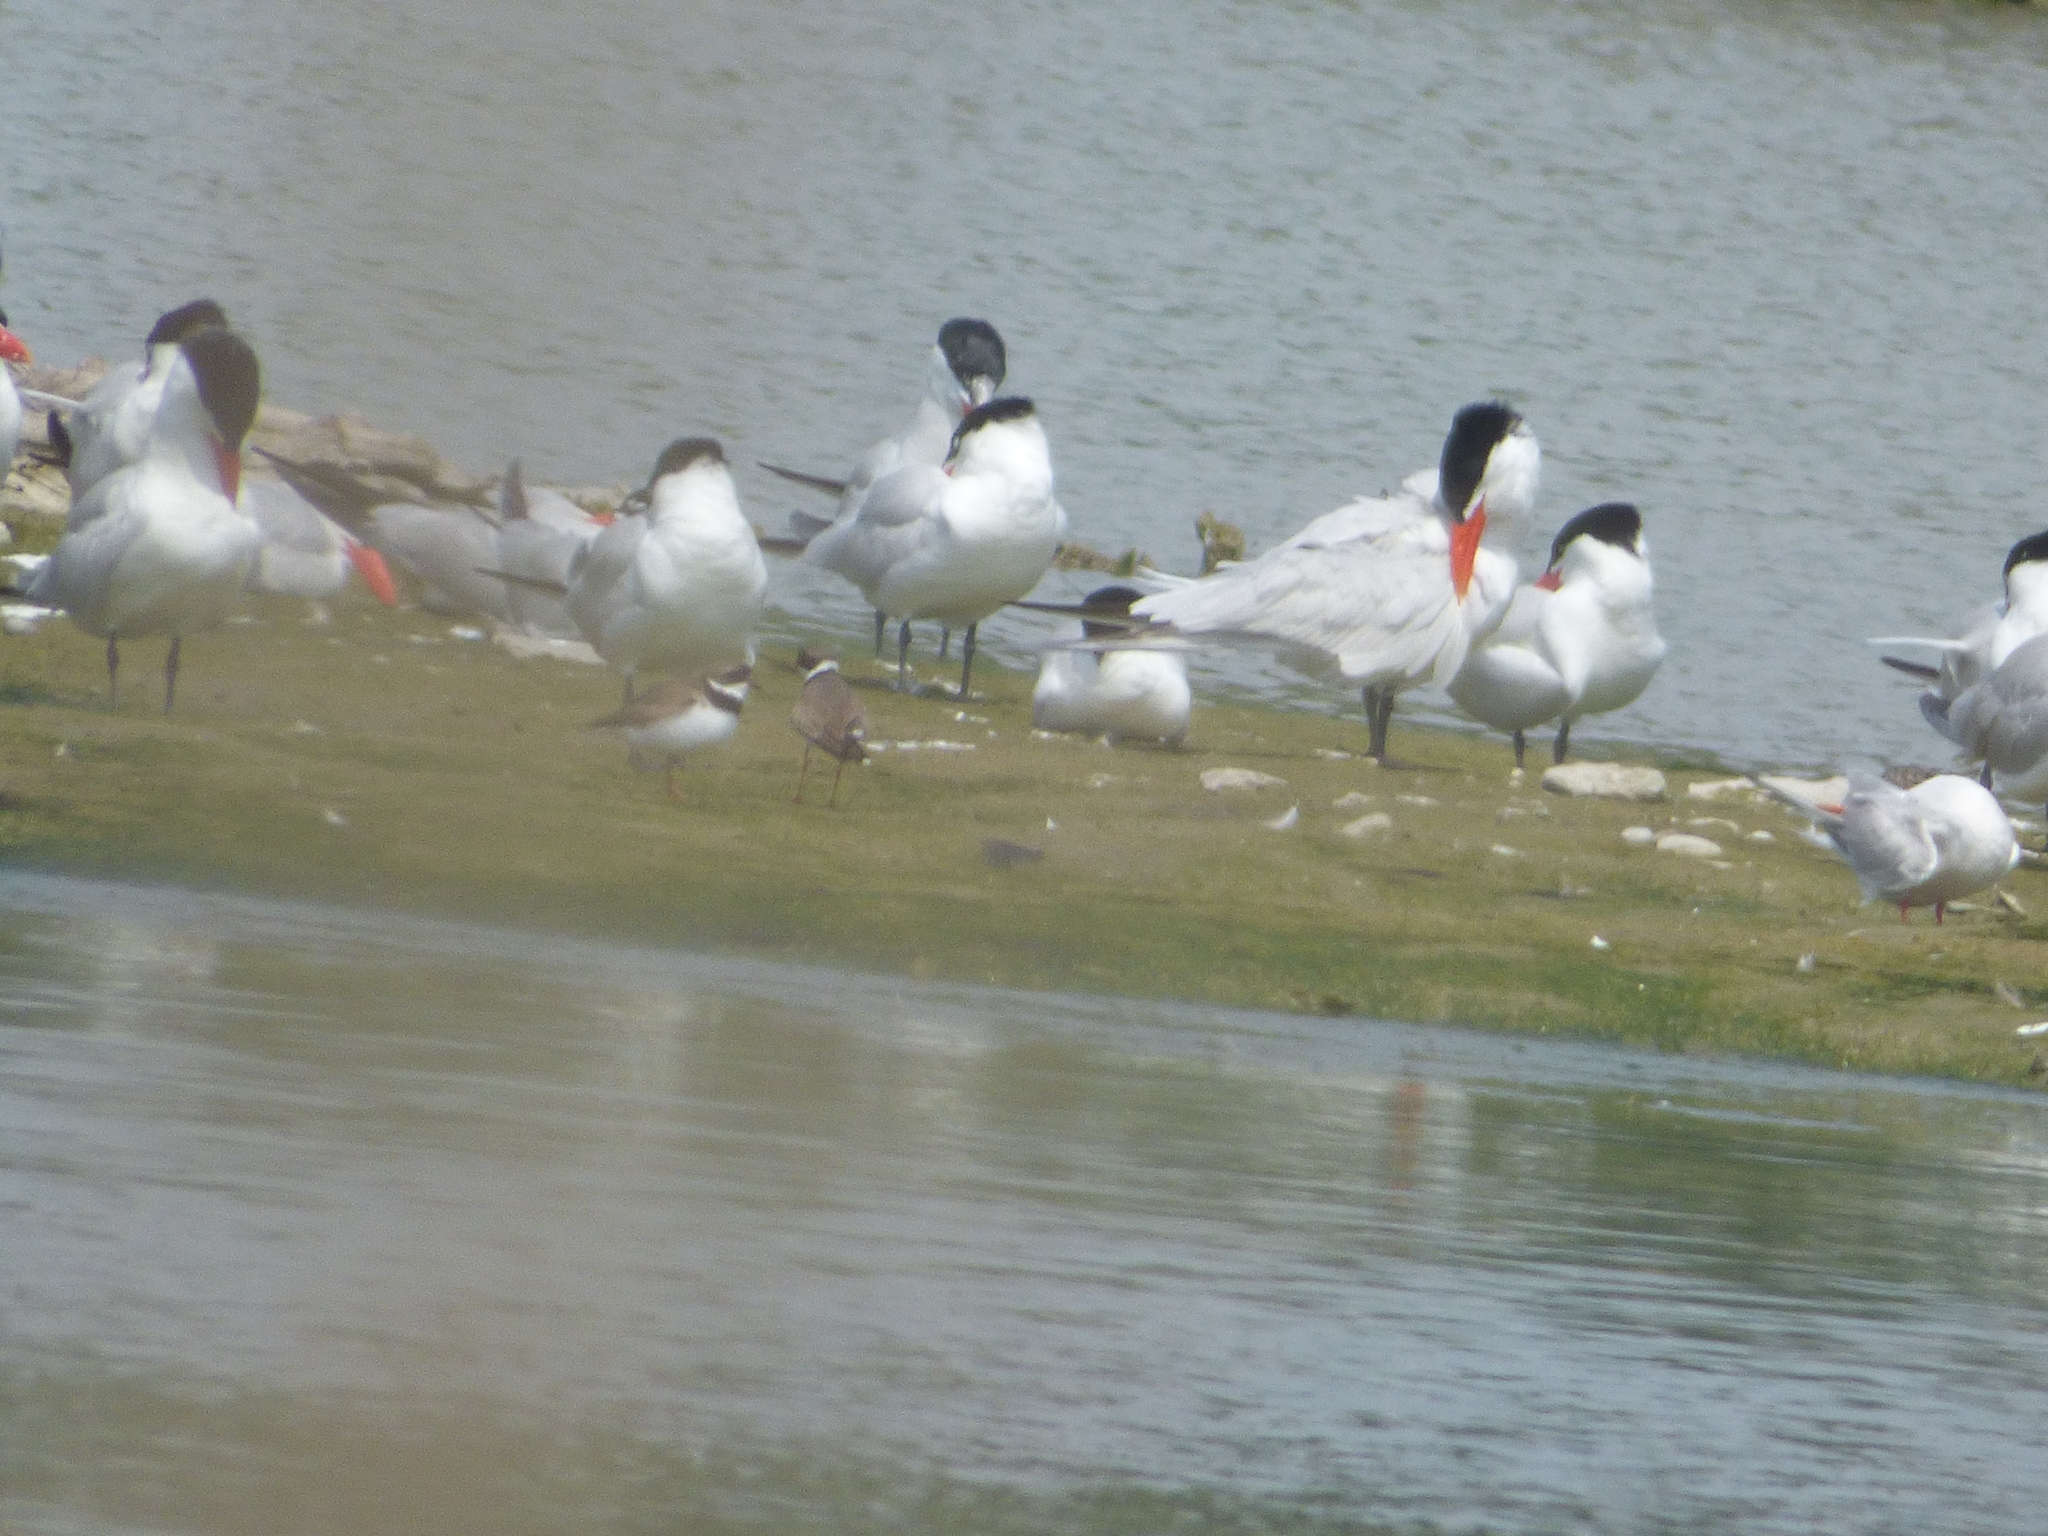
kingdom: Animalia
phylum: Chordata
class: Aves
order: Charadriiformes
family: Charadriidae
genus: Charadrius
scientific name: Charadrius semipalmatus
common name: Semipalmated plover
